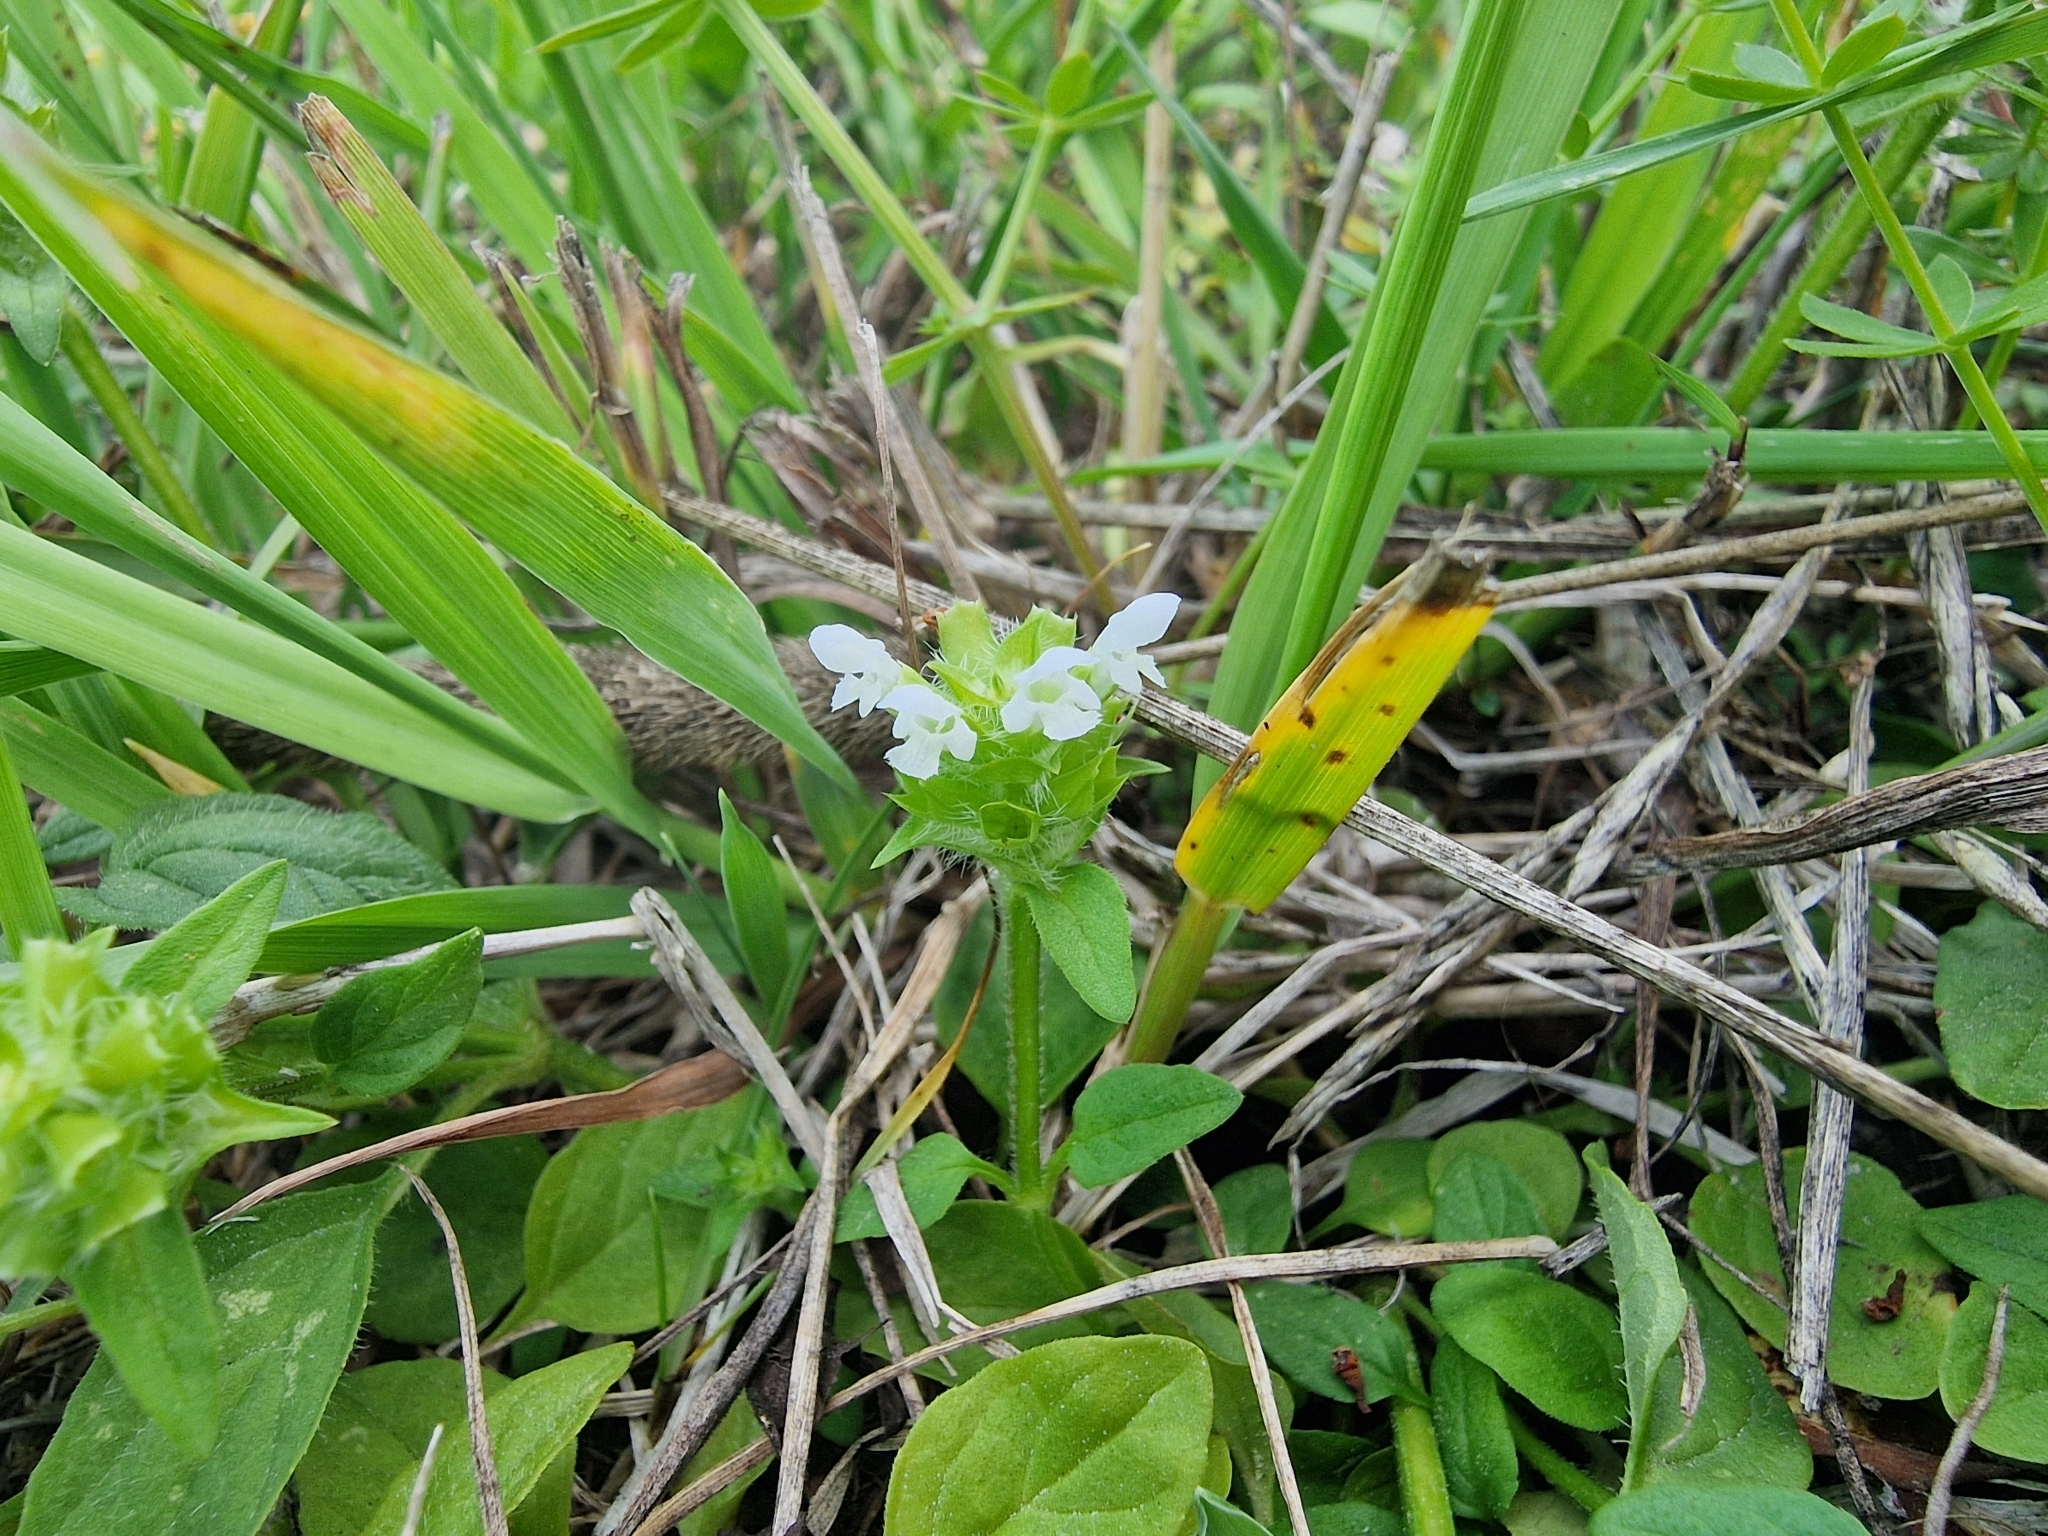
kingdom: Plantae
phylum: Tracheophyta
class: Magnoliopsida
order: Lamiales
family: Lamiaceae
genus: Prunella
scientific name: Prunella vulgaris
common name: Heal-all
